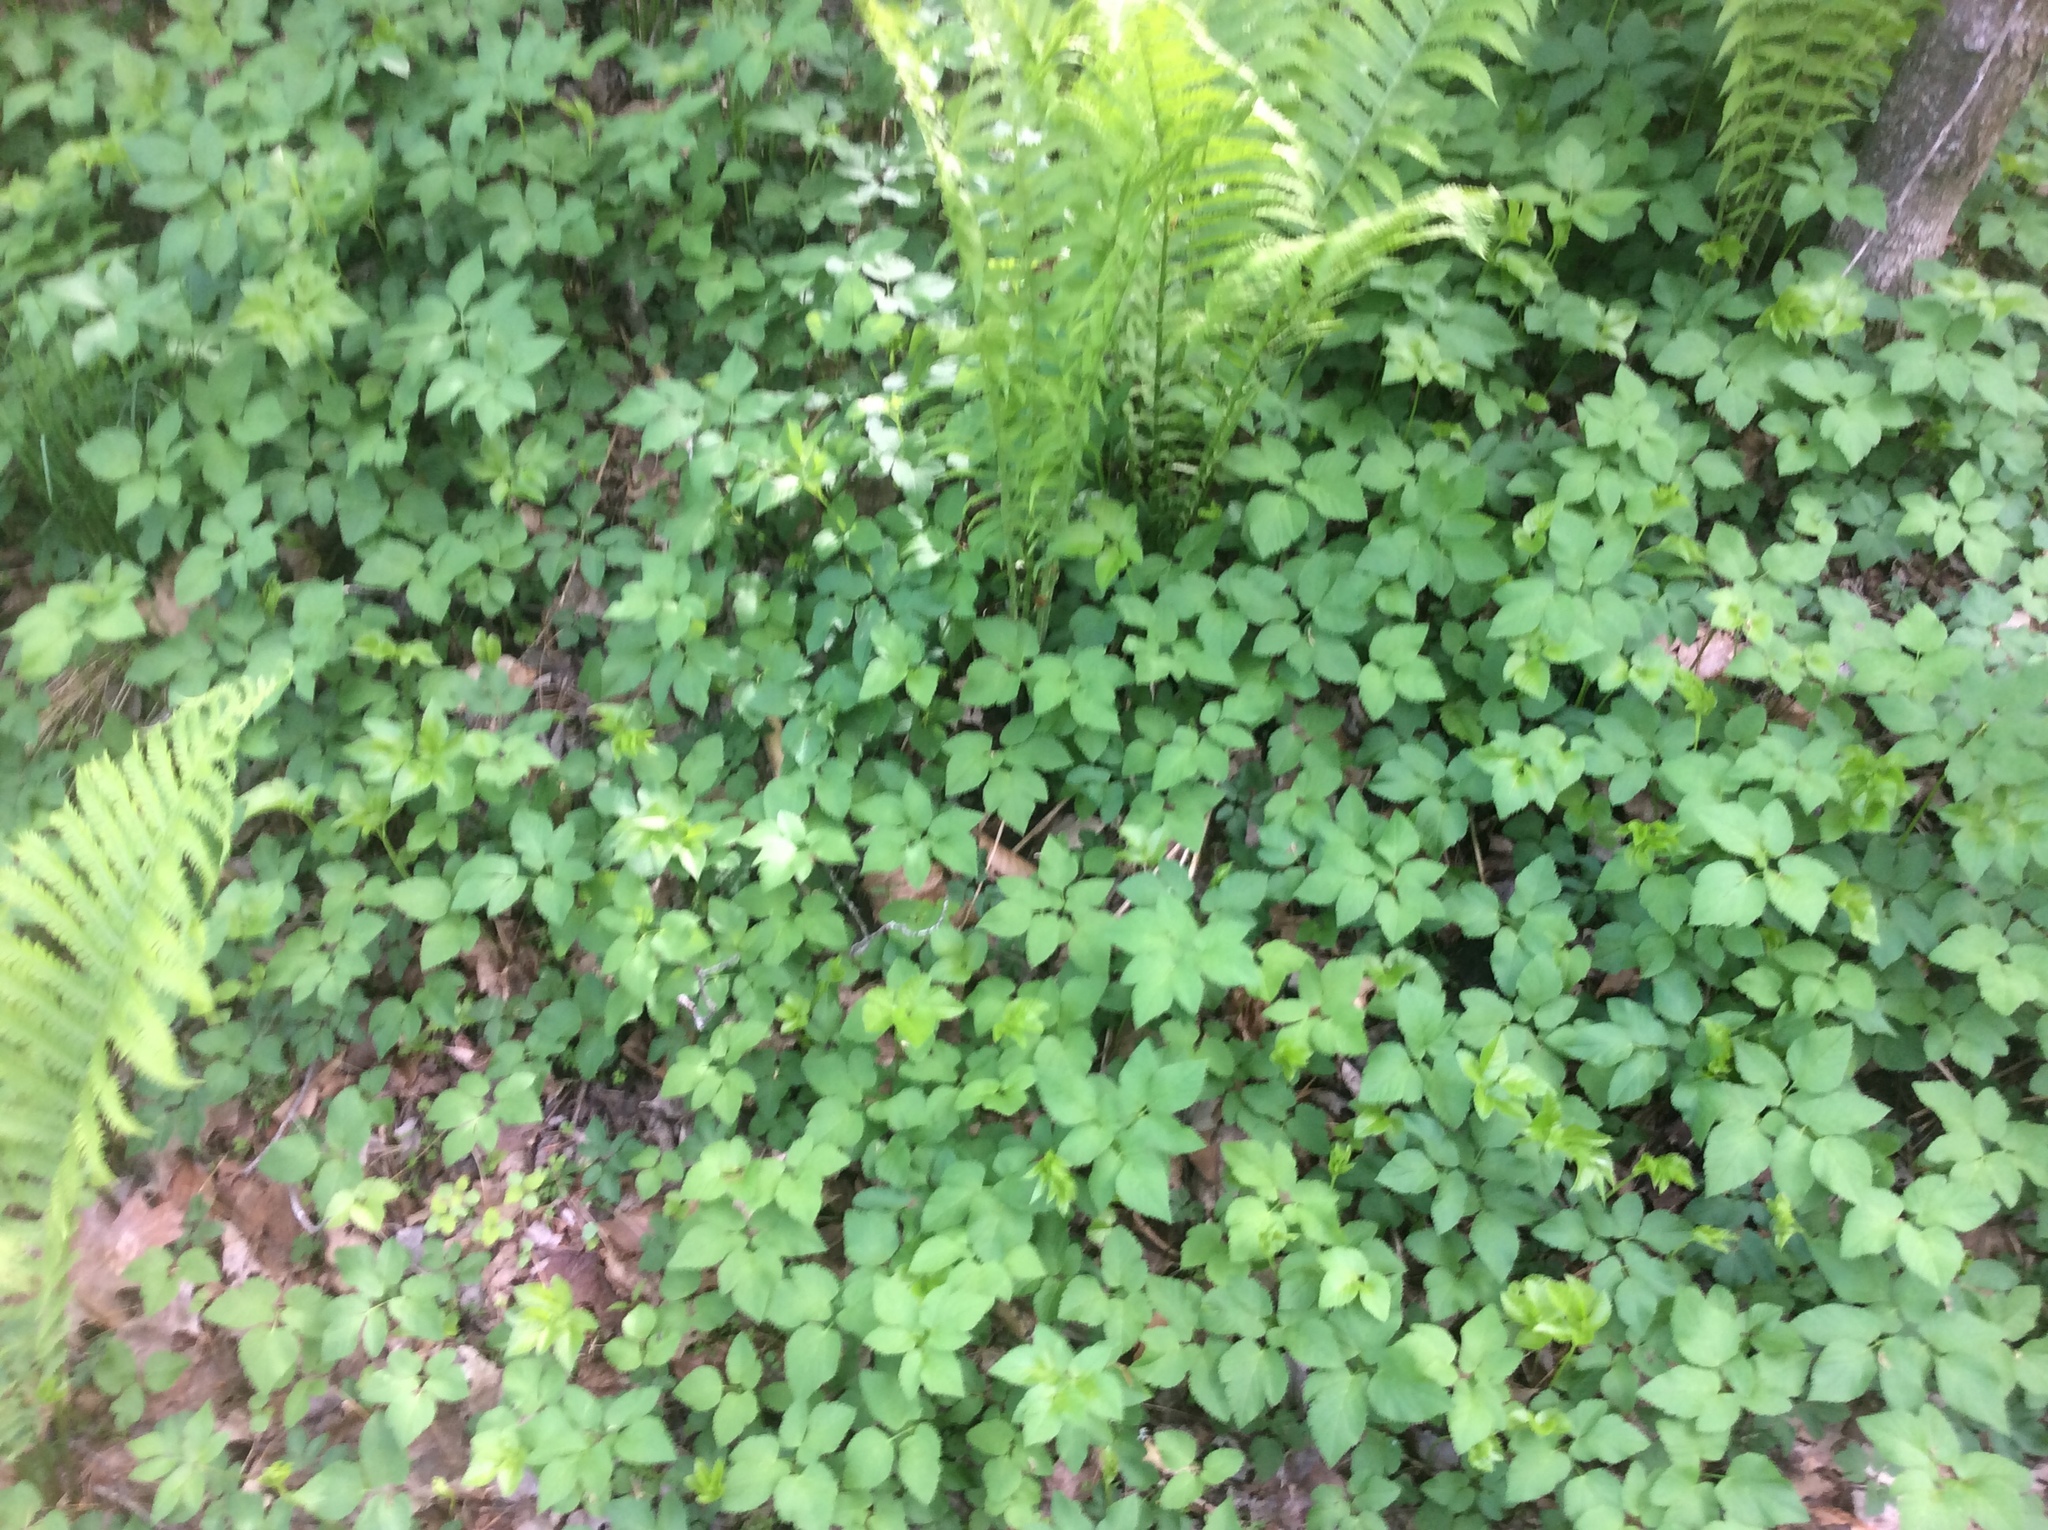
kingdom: Plantae
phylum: Tracheophyta
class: Magnoliopsida
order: Apiales
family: Apiaceae
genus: Aegopodium
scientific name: Aegopodium podagraria
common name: Ground-elder
